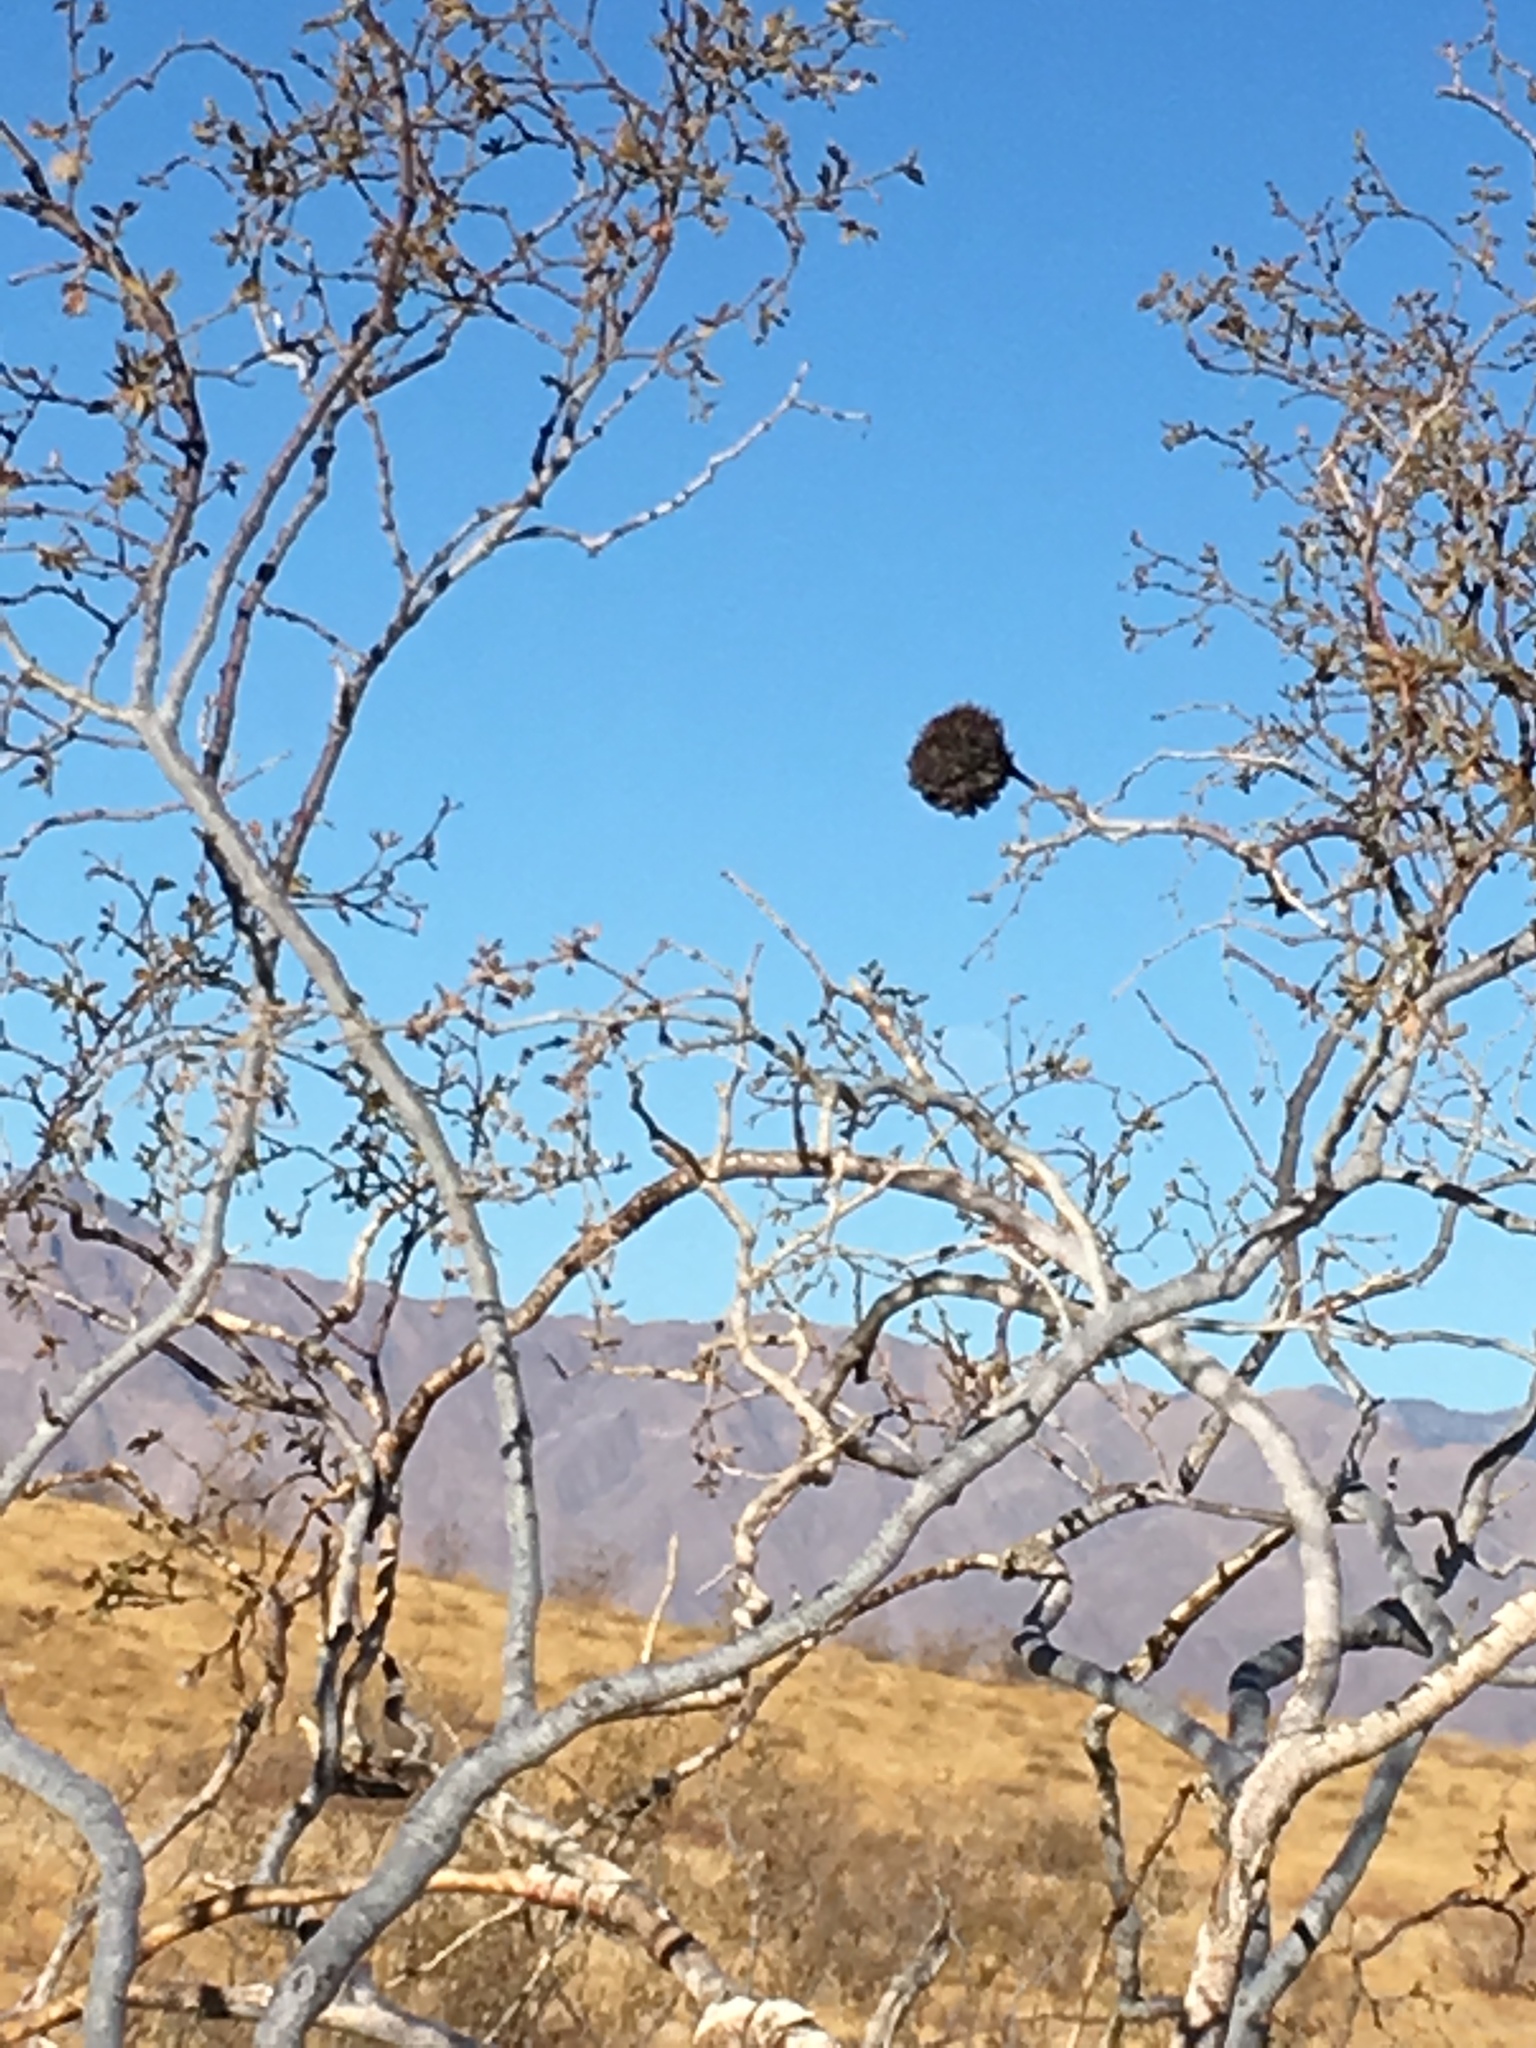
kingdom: Animalia
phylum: Arthropoda
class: Insecta
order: Diptera
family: Cecidomyiidae
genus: Asphondylia
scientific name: Asphondylia auripila
